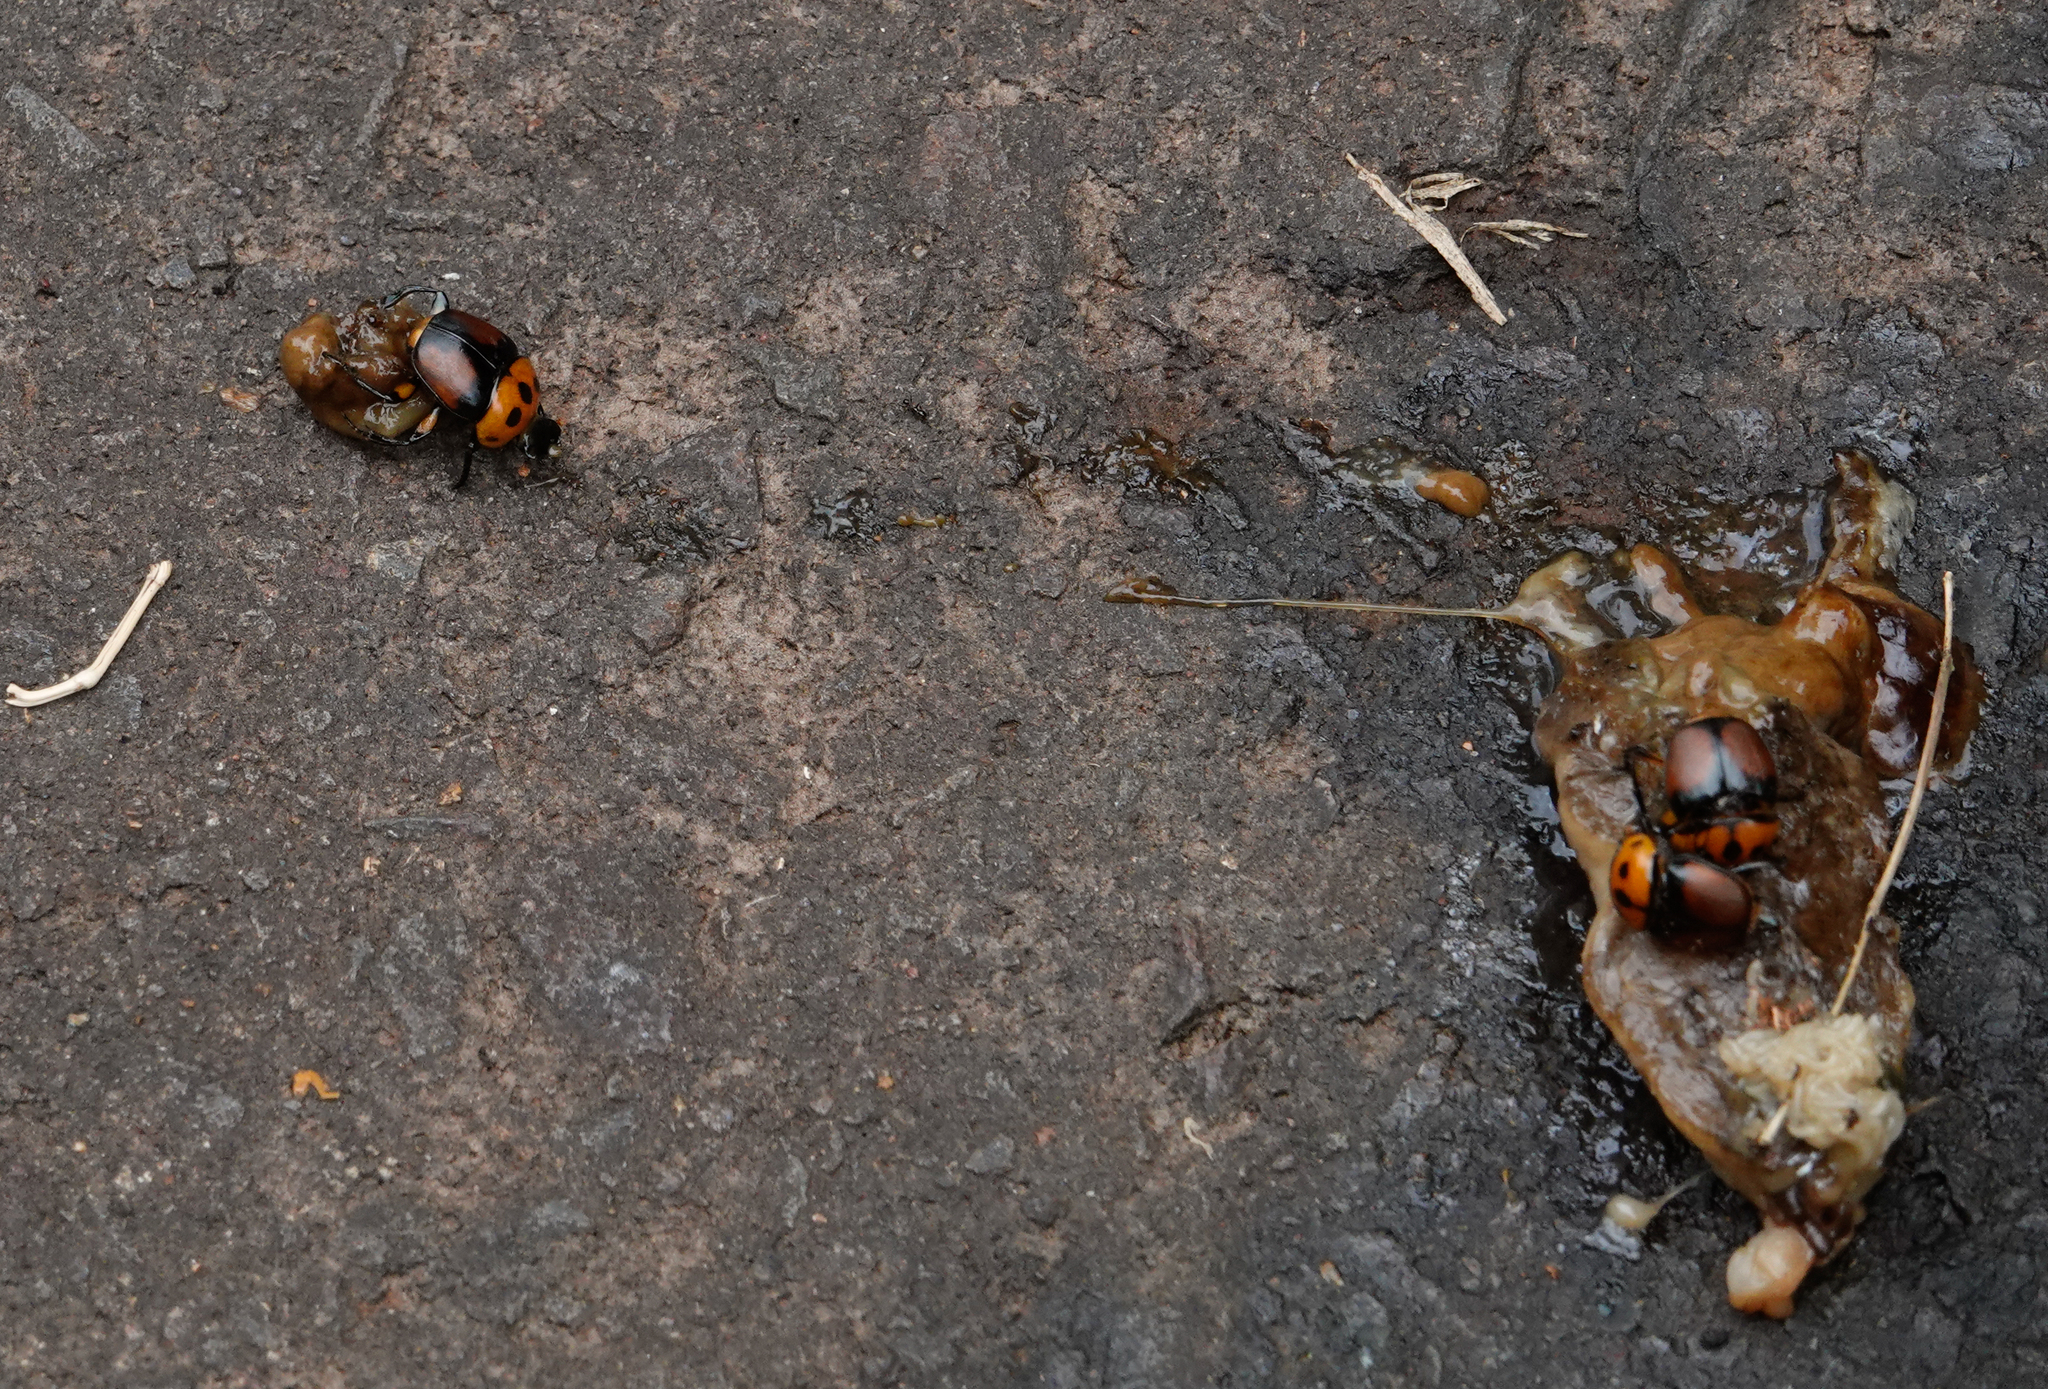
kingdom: Animalia
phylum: Arthropoda
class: Insecta
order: Coleoptera
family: Scarabaeidae
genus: Canthon
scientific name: Canthon quinquemaculatus
